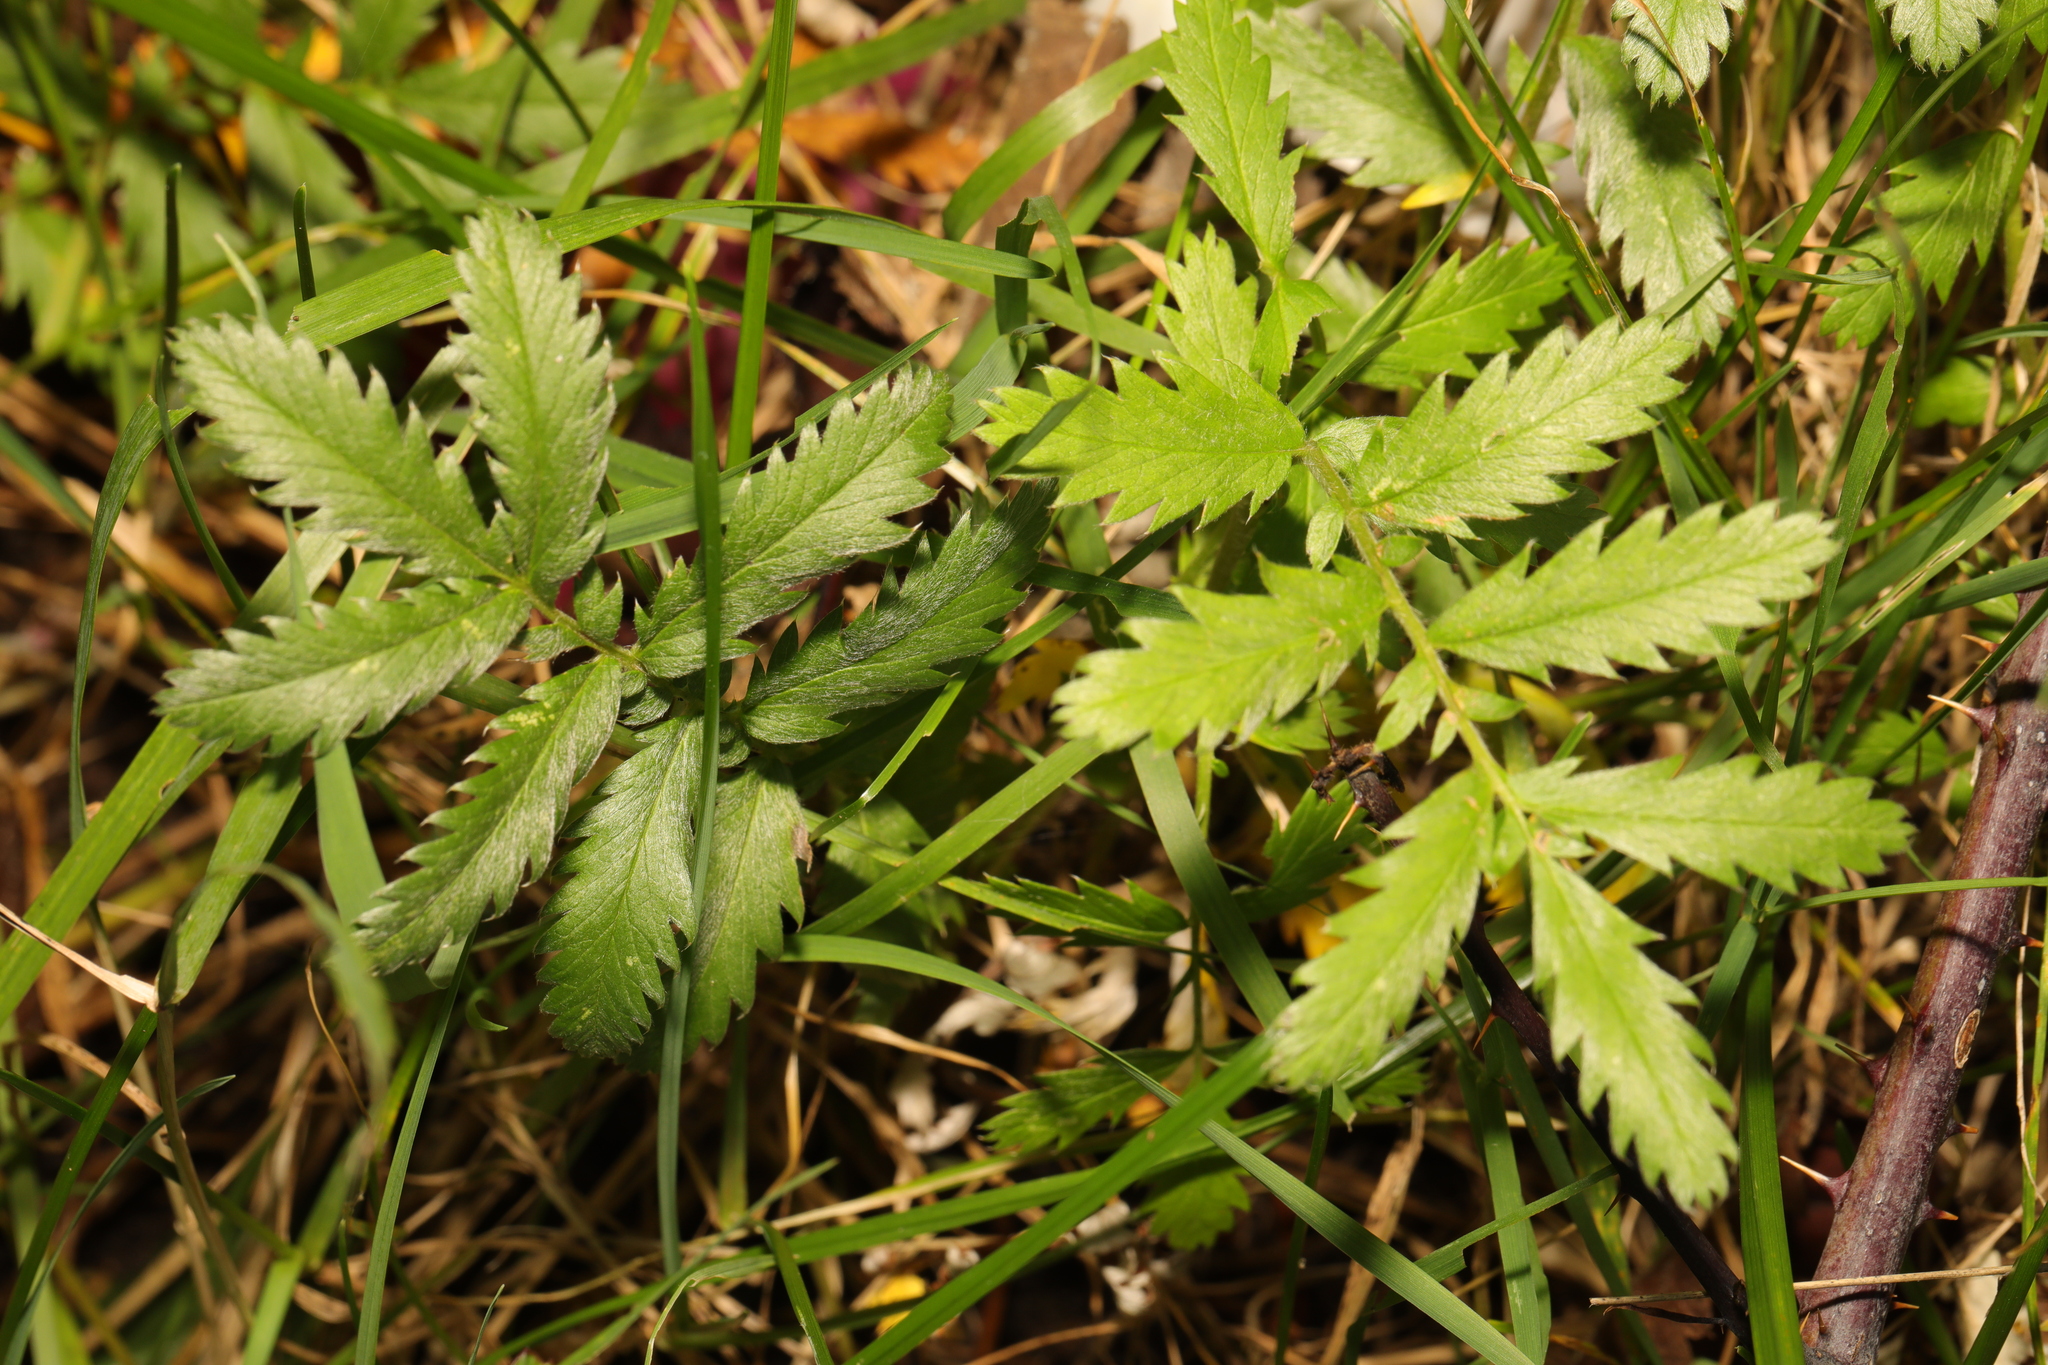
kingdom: Plantae
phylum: Tracheophyta
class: Magnoliopsida
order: Rosales
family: Rosaceae
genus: Argentina
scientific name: Argentina anserina
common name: Common silverweed
